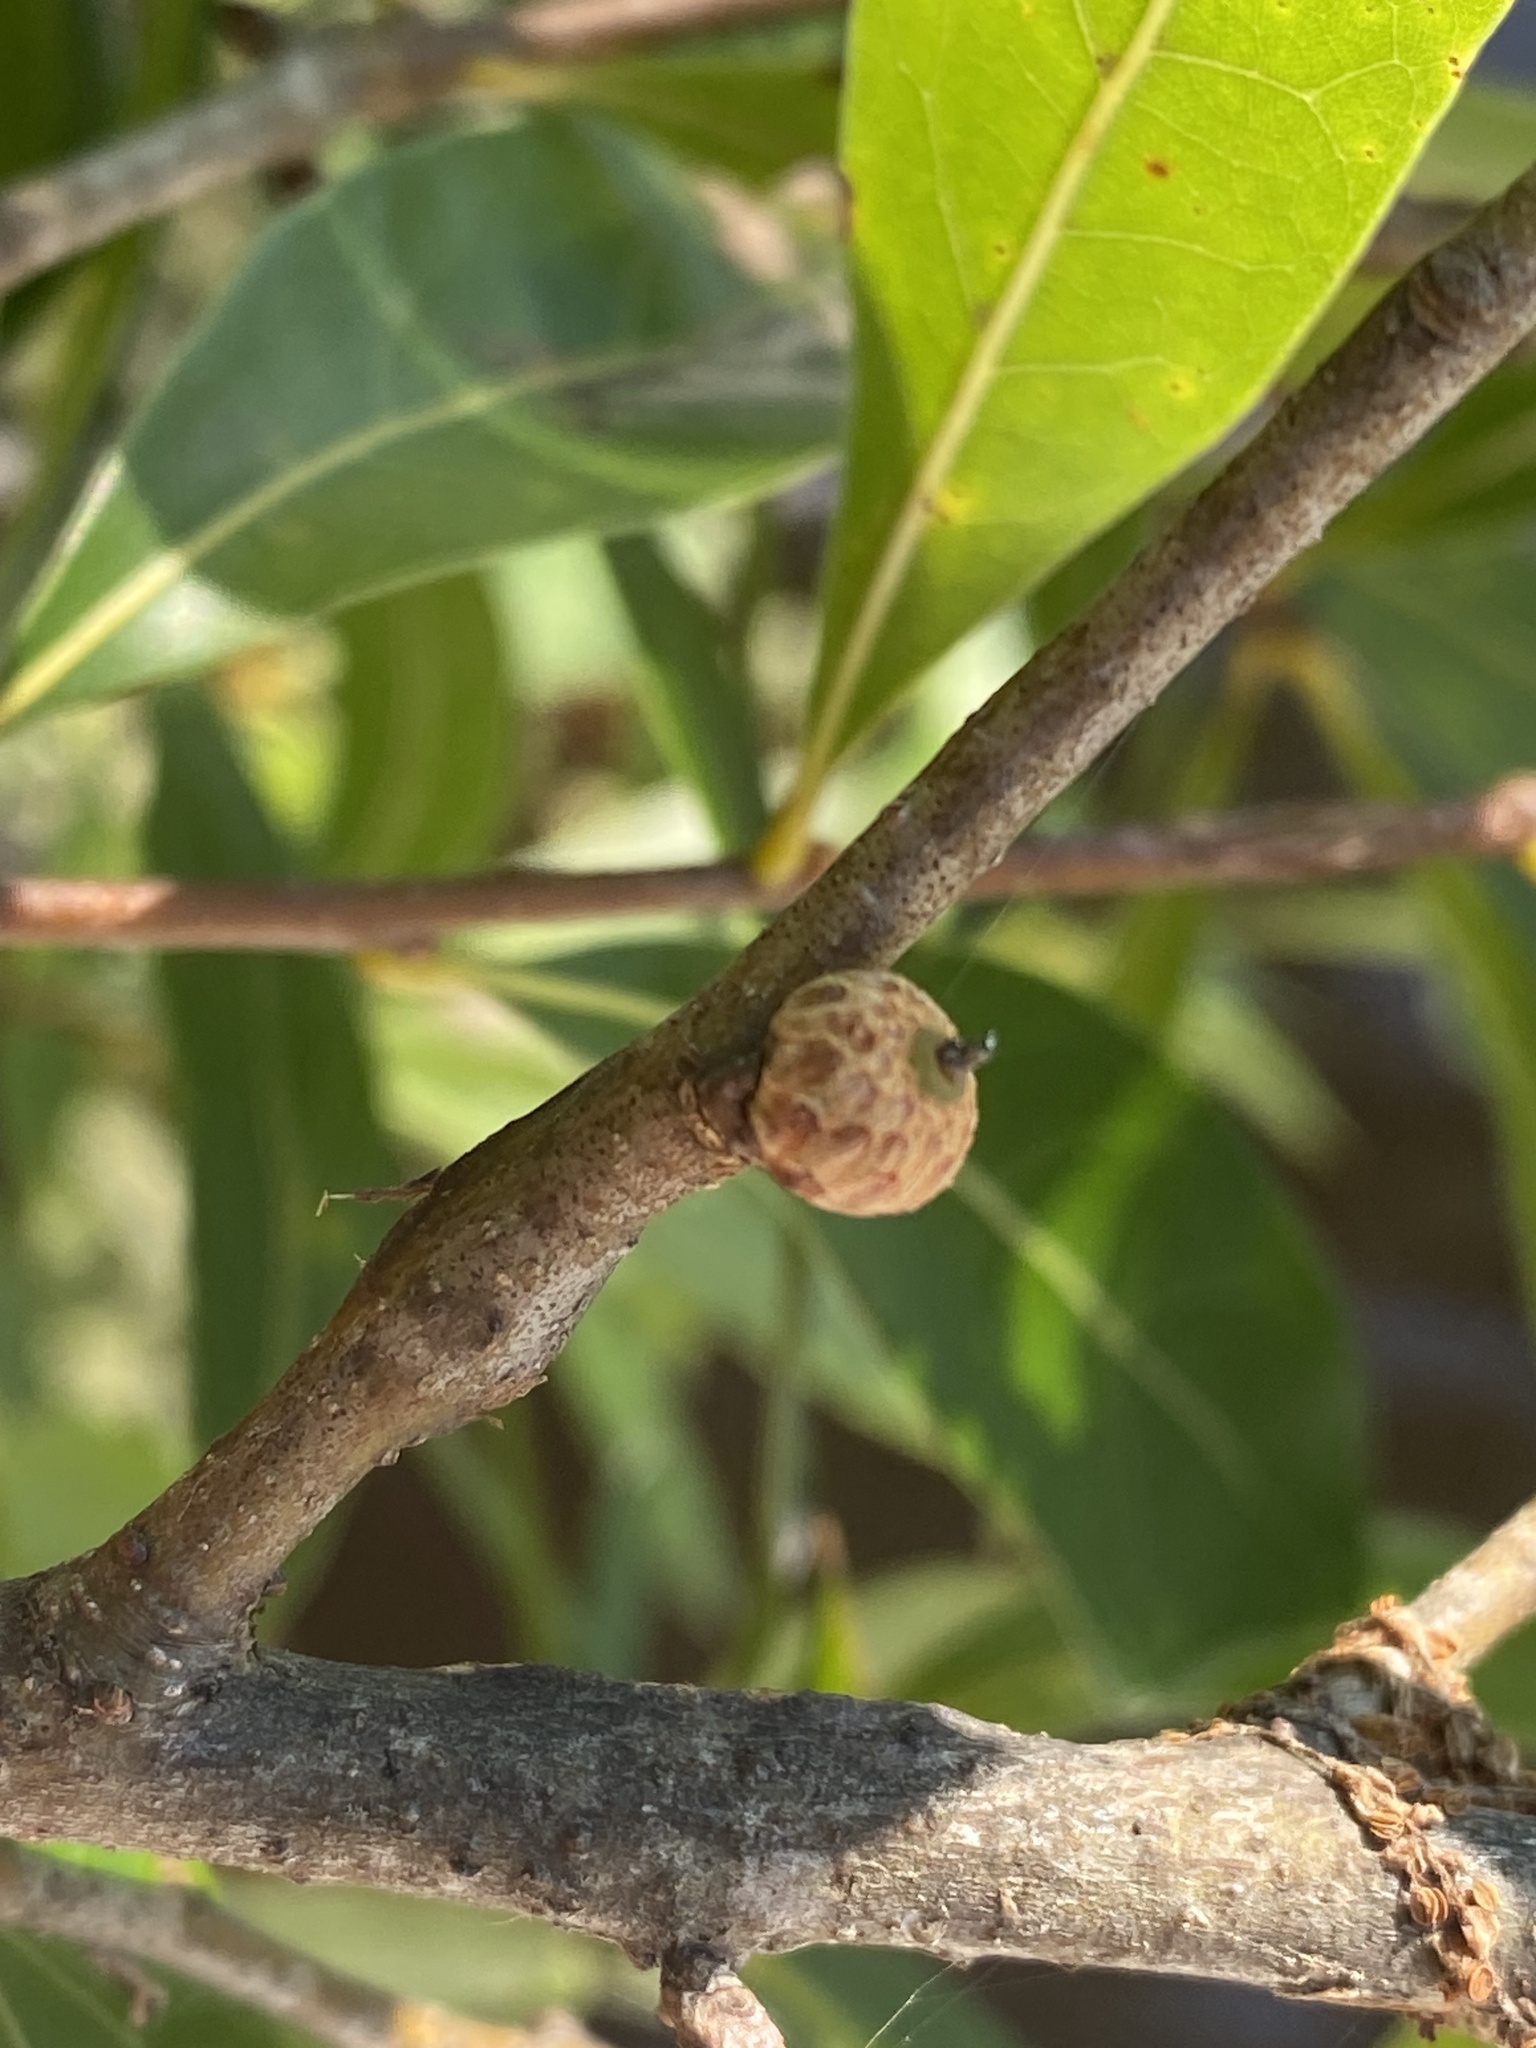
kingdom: Plantae
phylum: Tracheophyta
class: Magnoliopsida
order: Fagales
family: Fagaceae
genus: Quercus
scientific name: Quercus hemisphaerica
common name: Darlington oak
